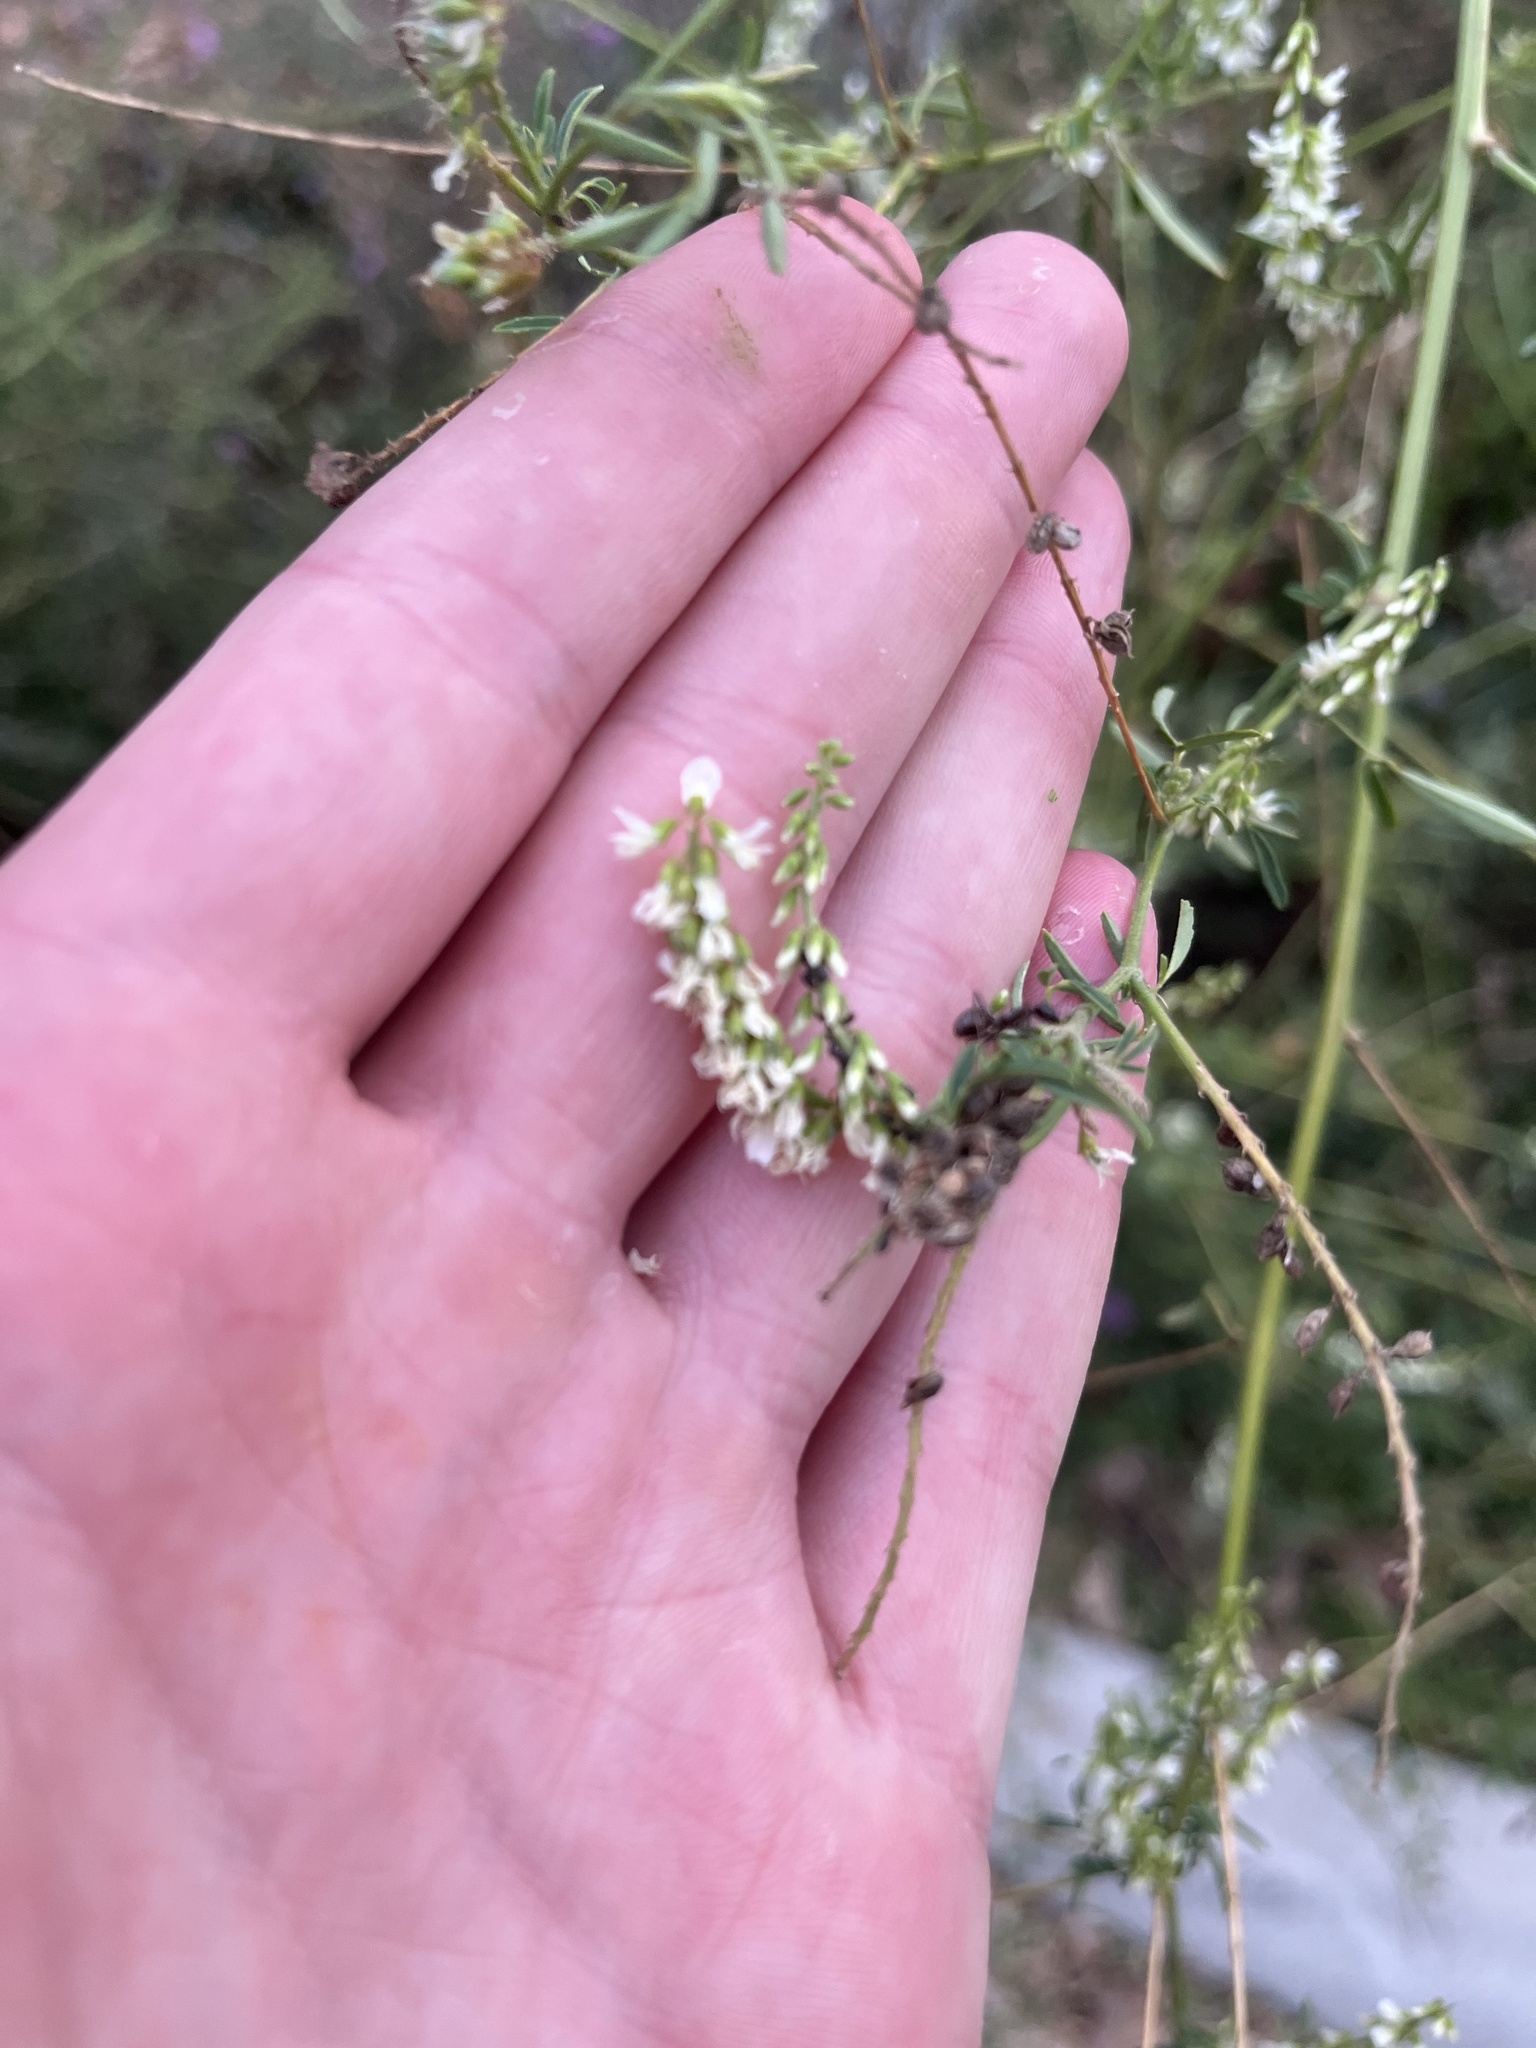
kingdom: Plantae
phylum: Tracheophyta
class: Magnoliopsida
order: Fabales
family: Fabaceae
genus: Melilotus
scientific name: Melilotus albus
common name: White melilot
